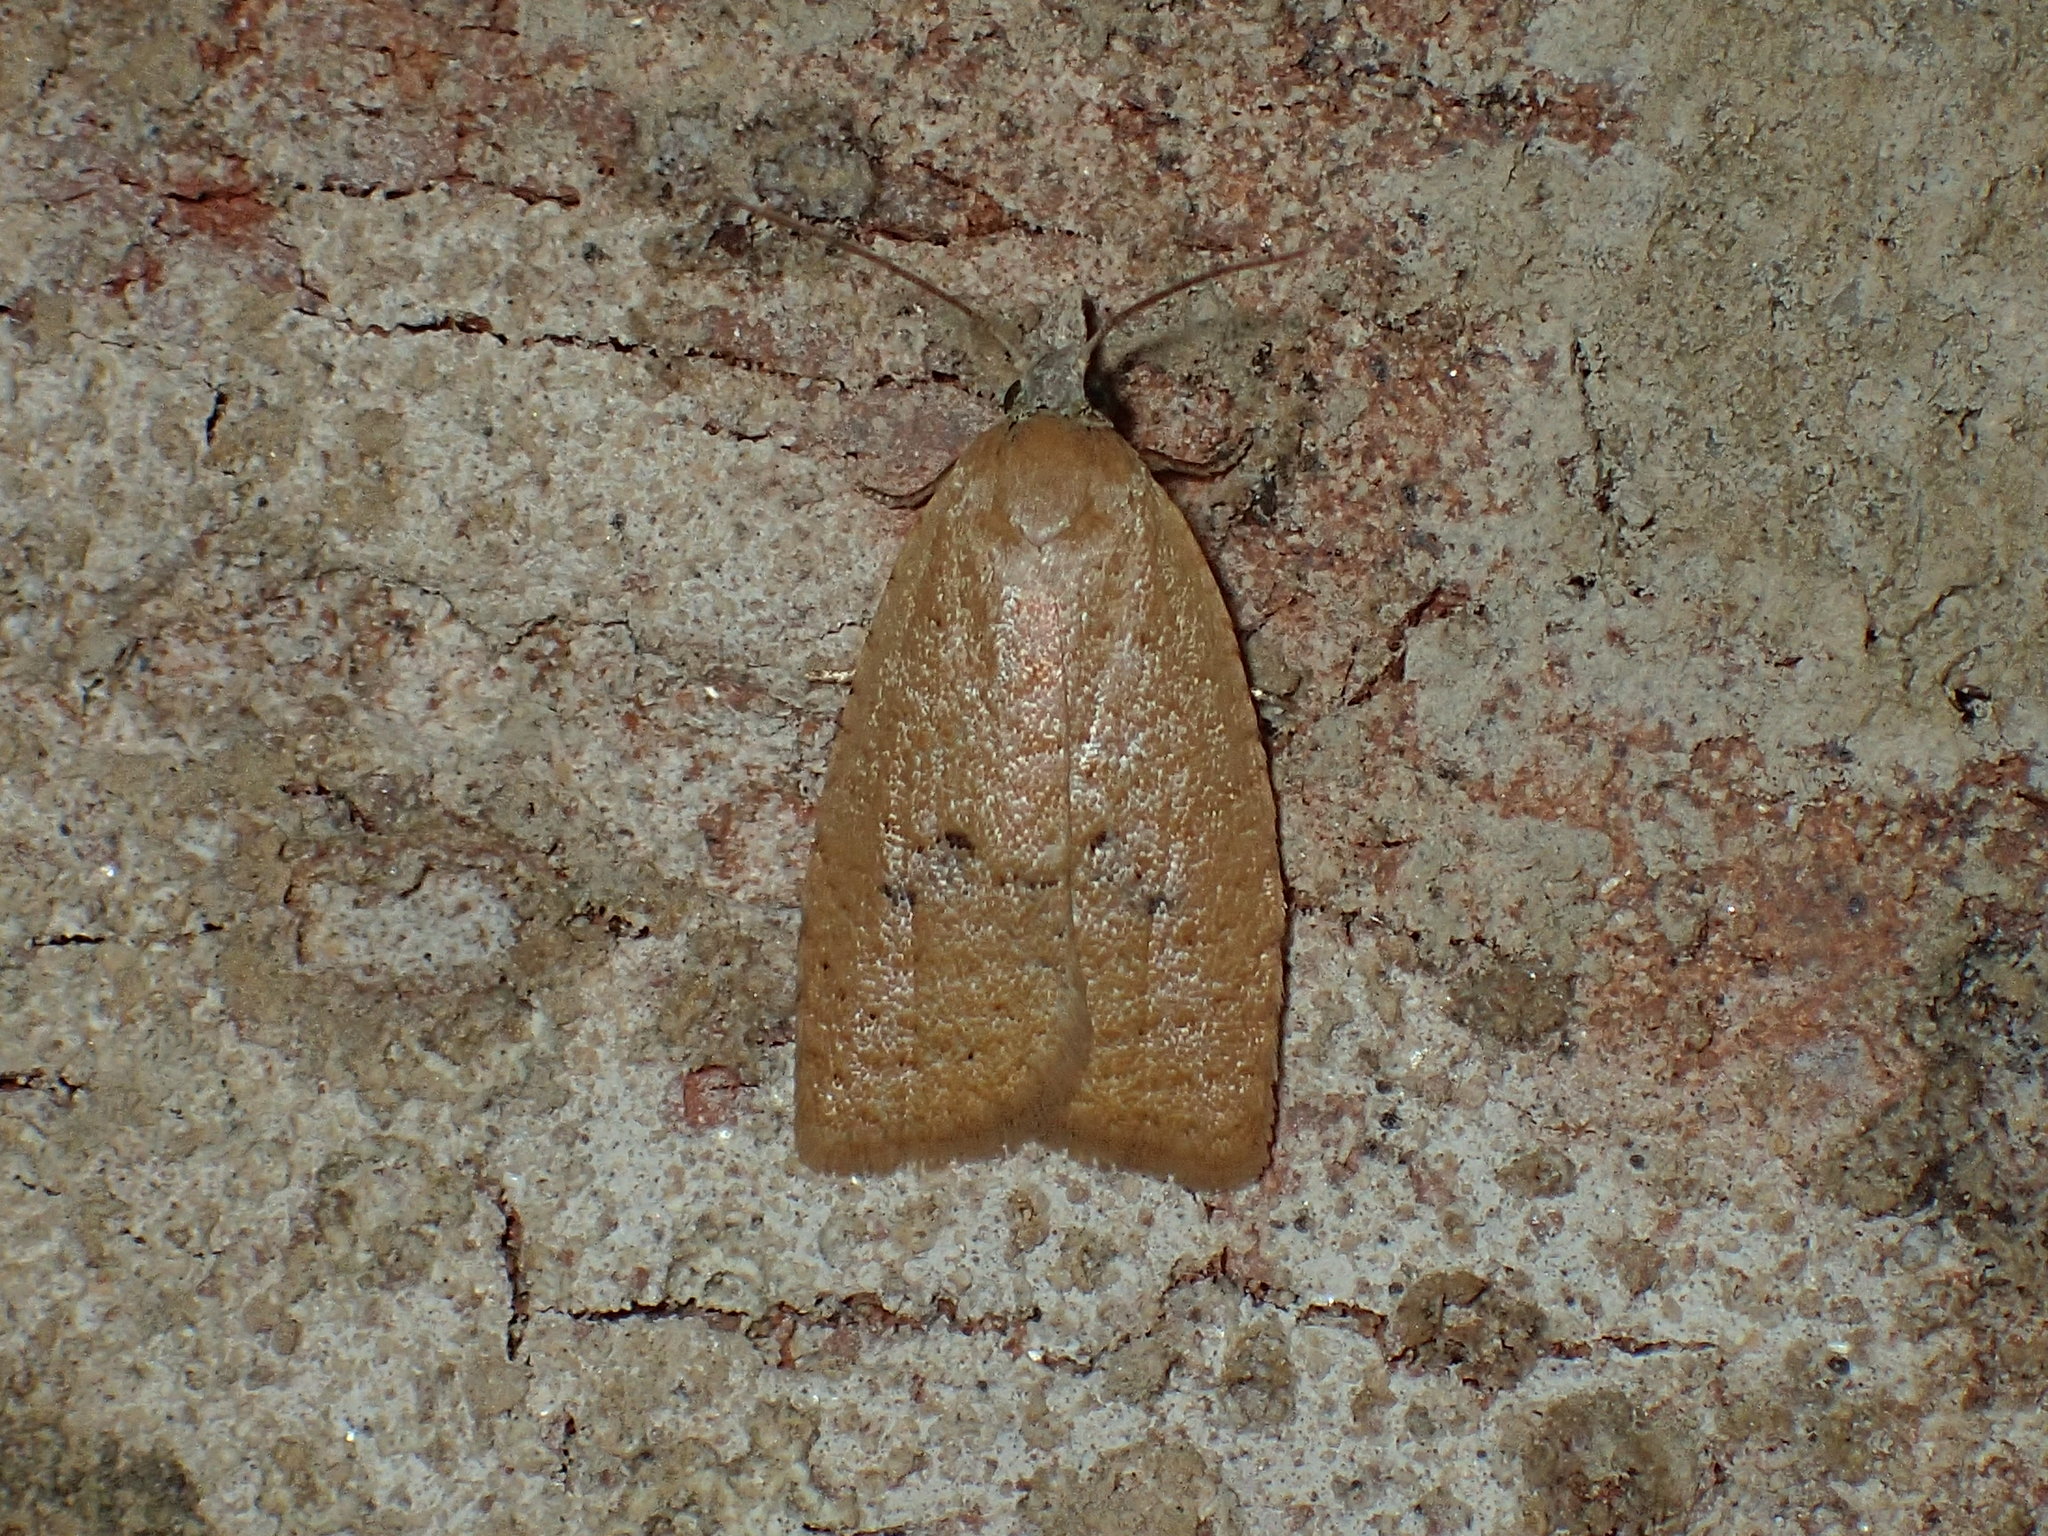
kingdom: Animalia
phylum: Arthropoda
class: Insecta
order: Lepidoptera
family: Tortricidae
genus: Sparganothoides
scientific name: Sparganothoides lentiginosana
